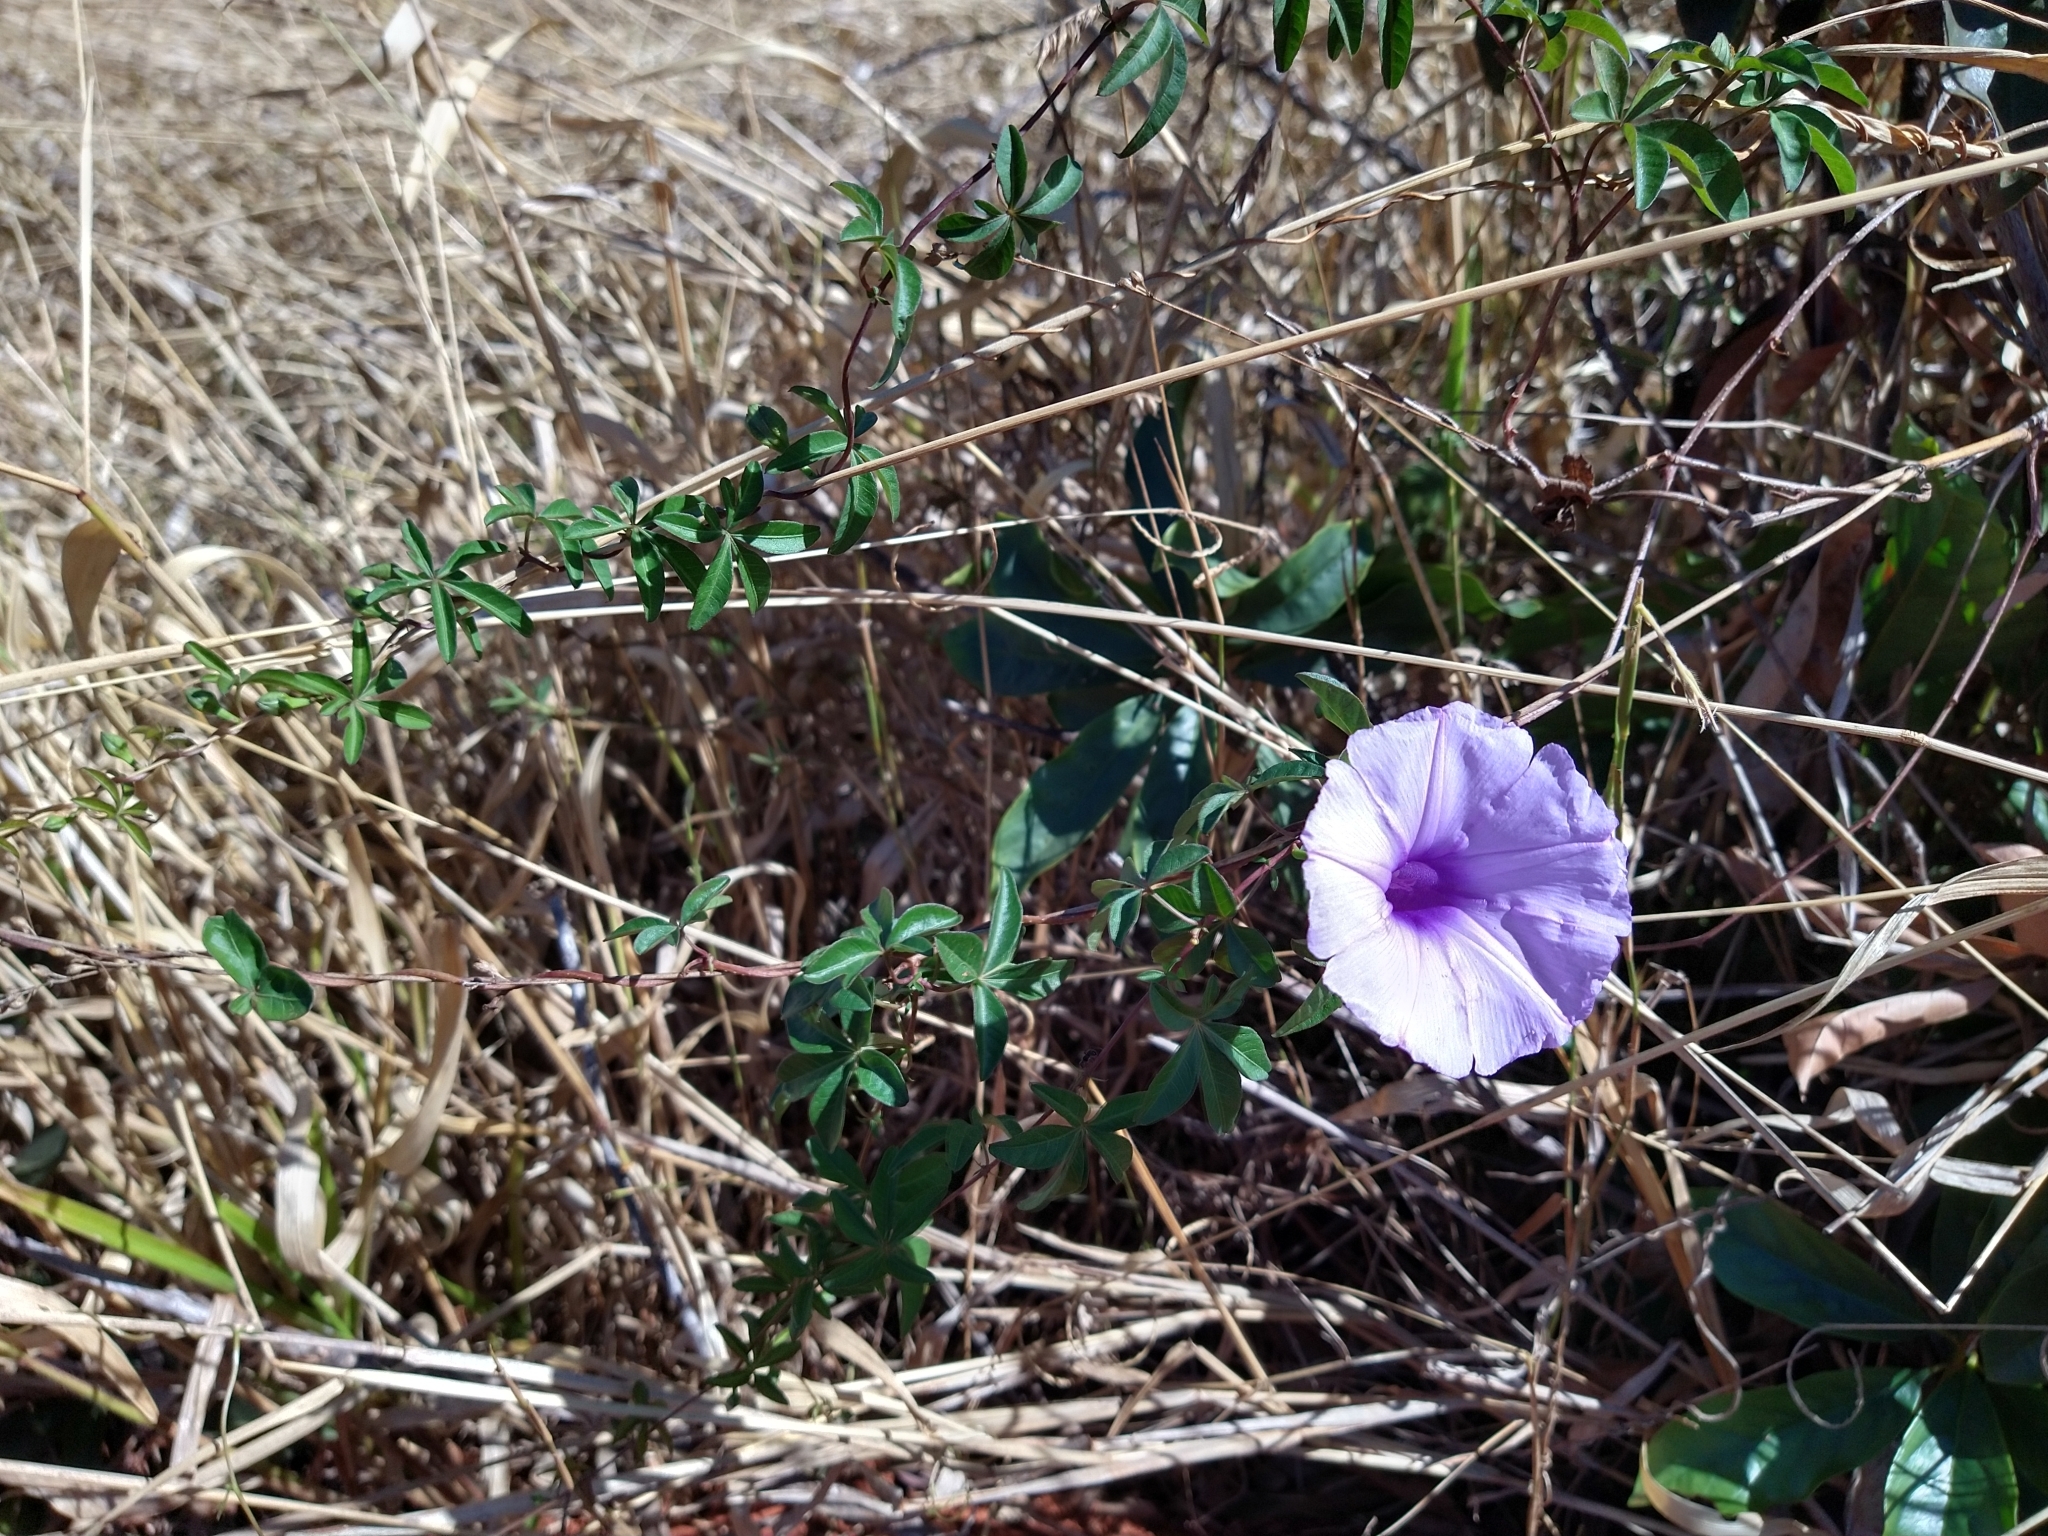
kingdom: Plantae
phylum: Tracheophyta
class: Magnoliopsida
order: Solanales
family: Convolvulaceae
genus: Ipomoea
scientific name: Ipomoea cairica
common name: Mile a minute vine
